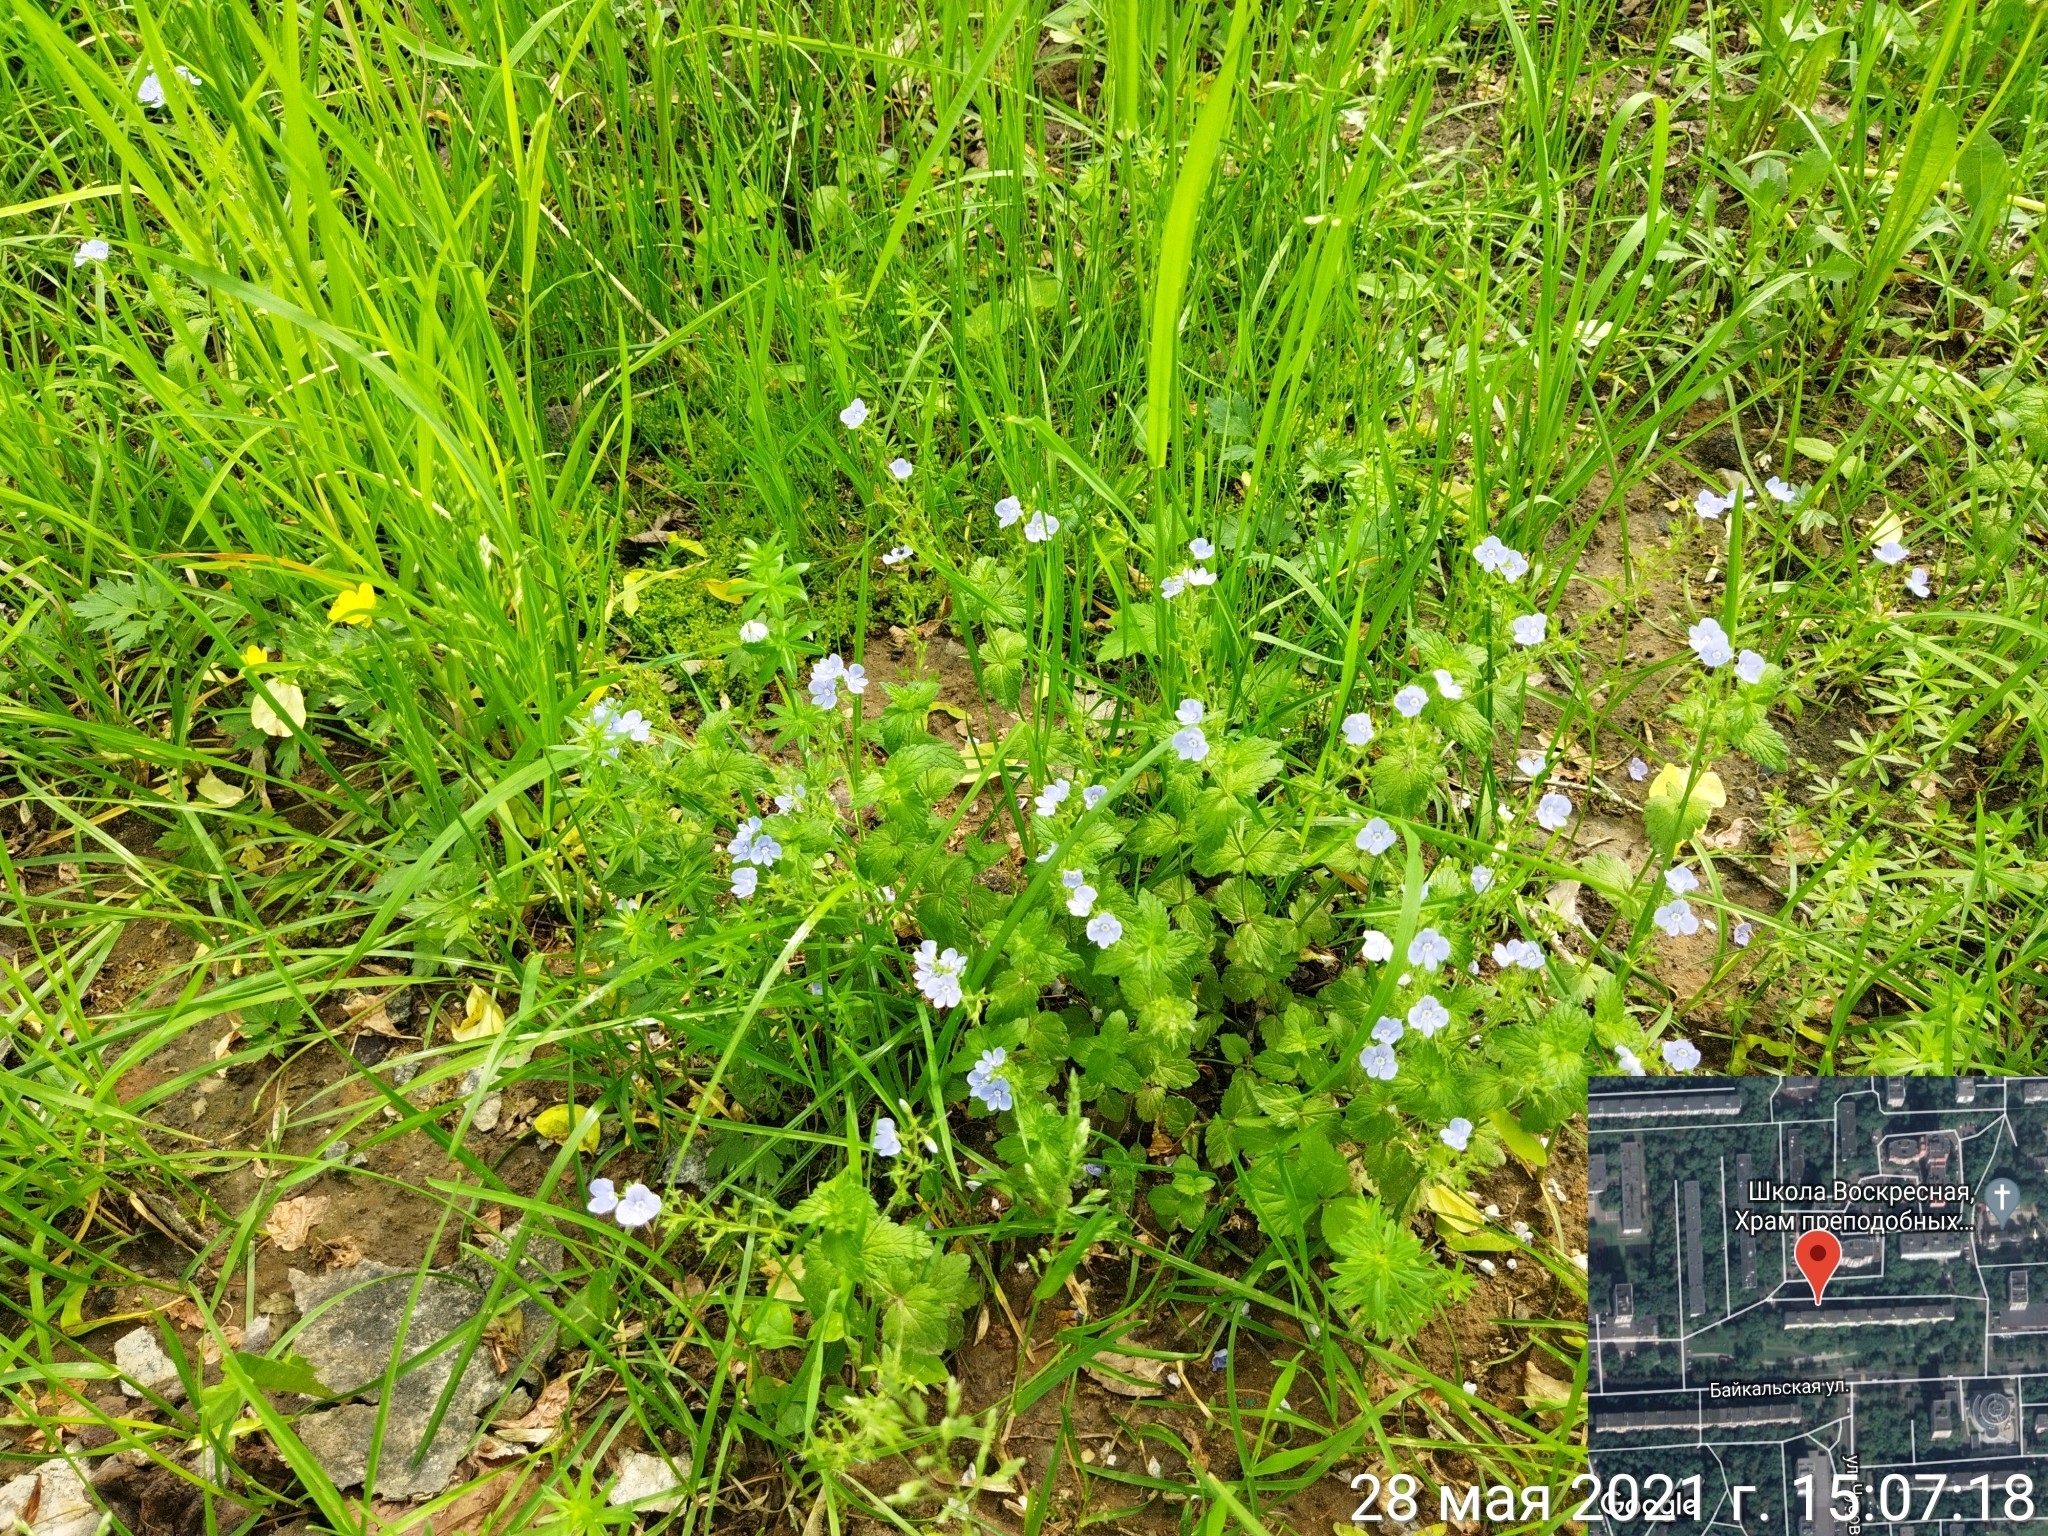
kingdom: Plantae
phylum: Tracheophyta
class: Magnoliopsida
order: Lamiales
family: Plantaginaceae
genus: Veronica
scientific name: Veronica chamaedrys
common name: Germander speedwell
